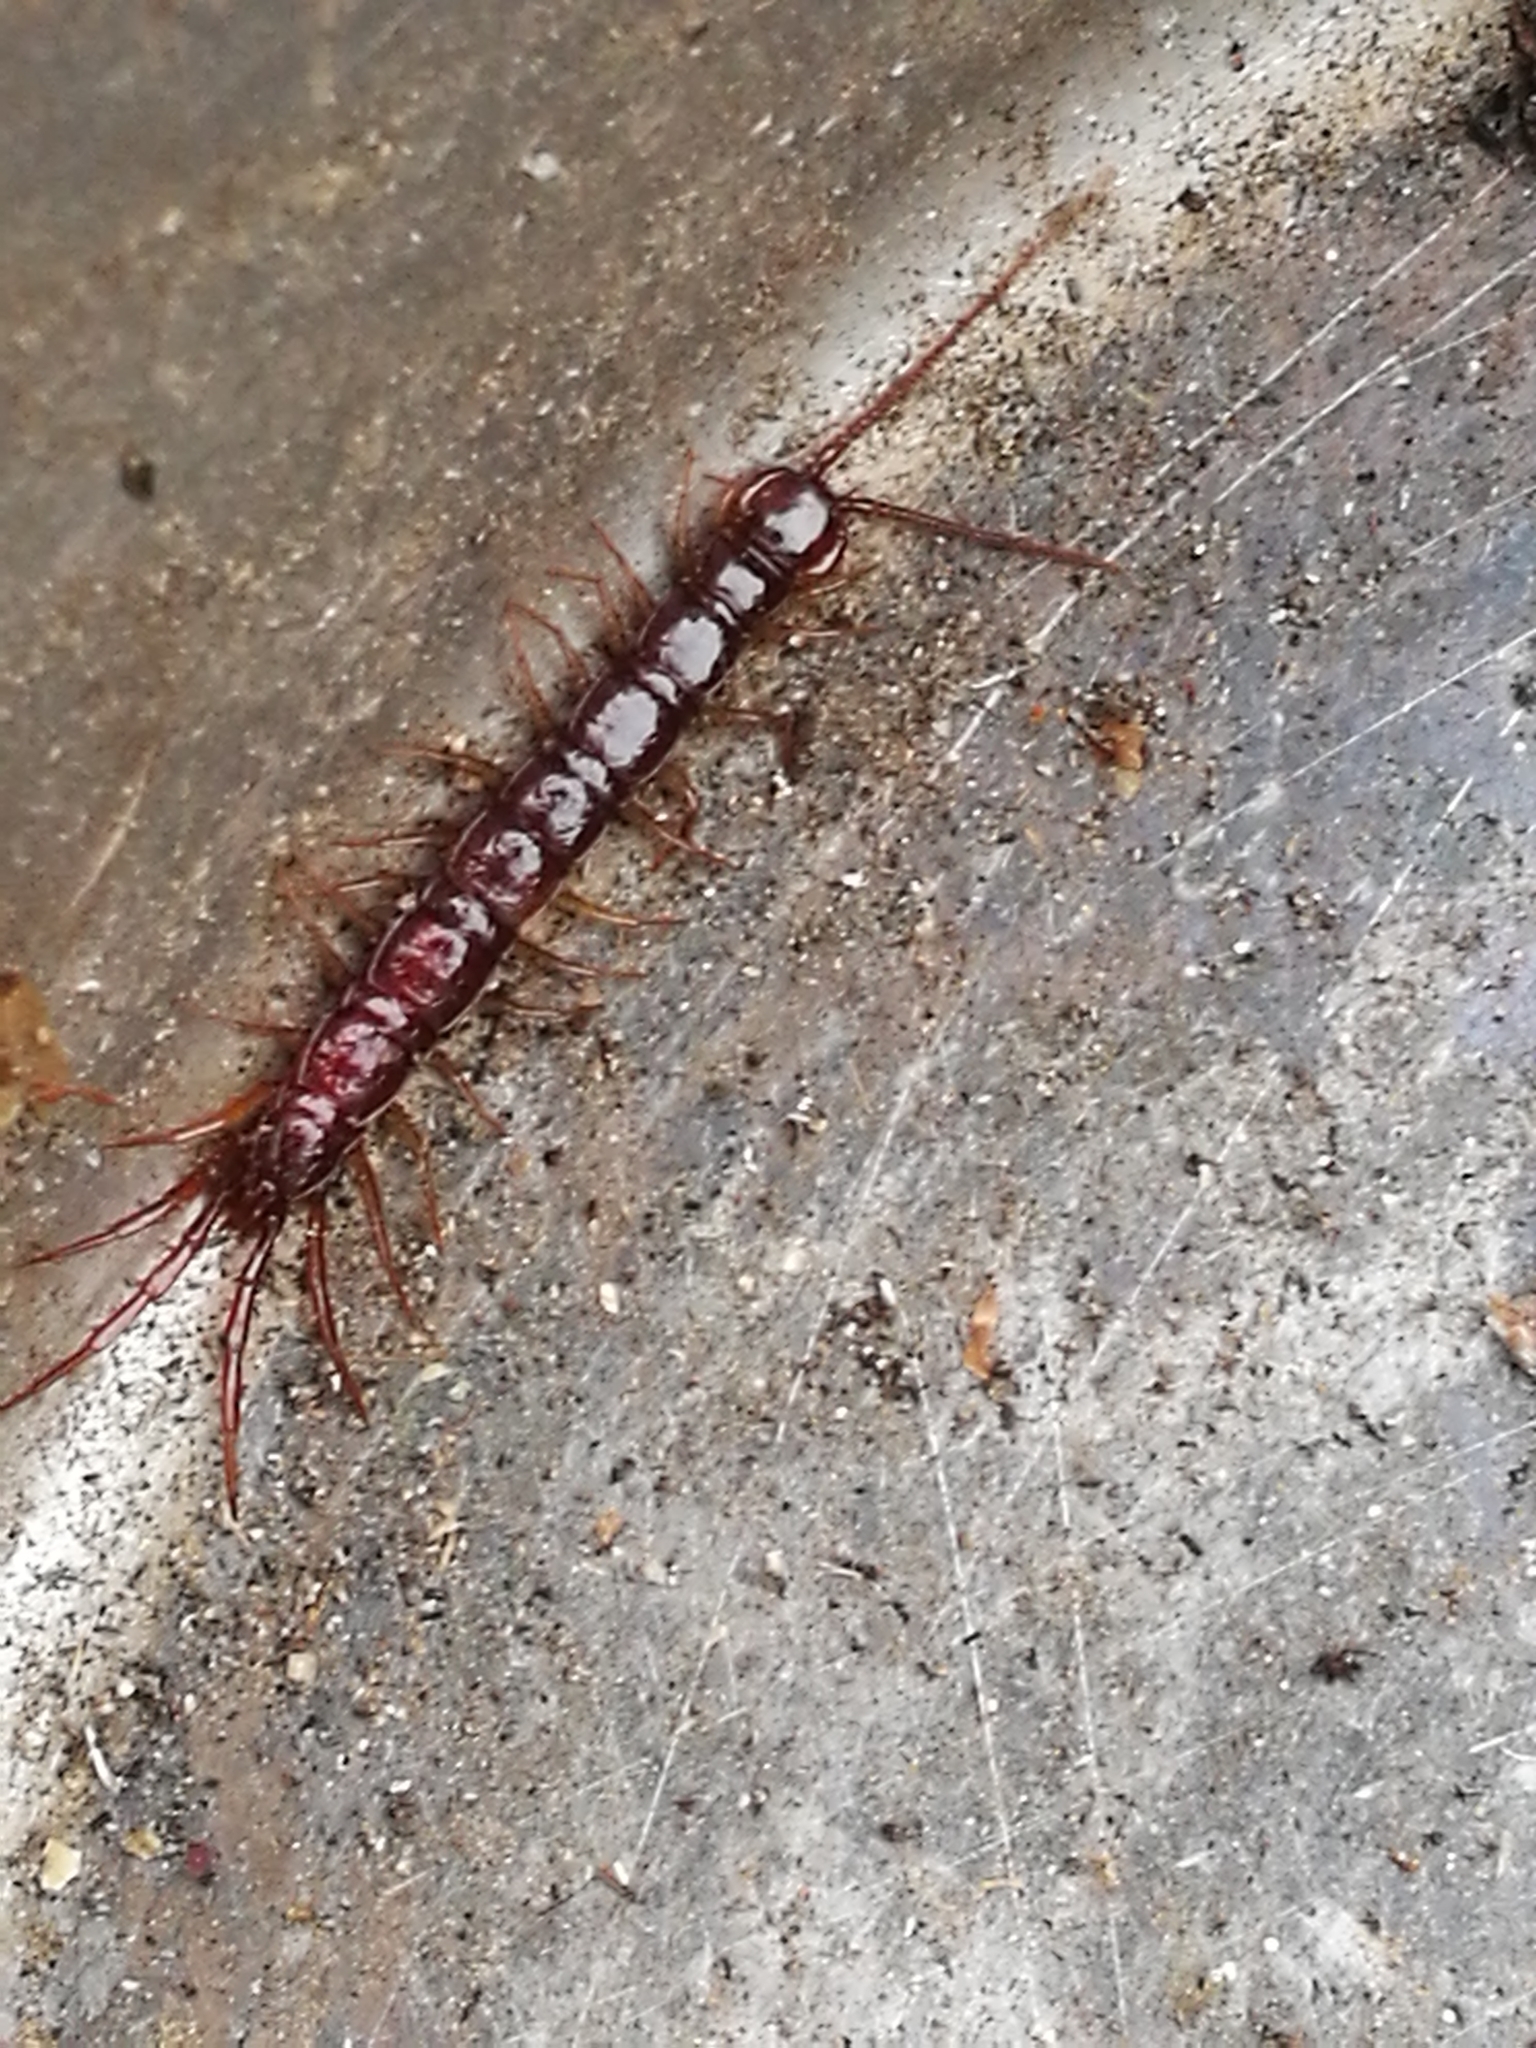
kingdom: Animalia
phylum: Arthropoda
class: Chilopoda
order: Lithobiomorpha
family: Lithobiidae
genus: Lithobius
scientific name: Lithobius forficatus
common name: Centipede
